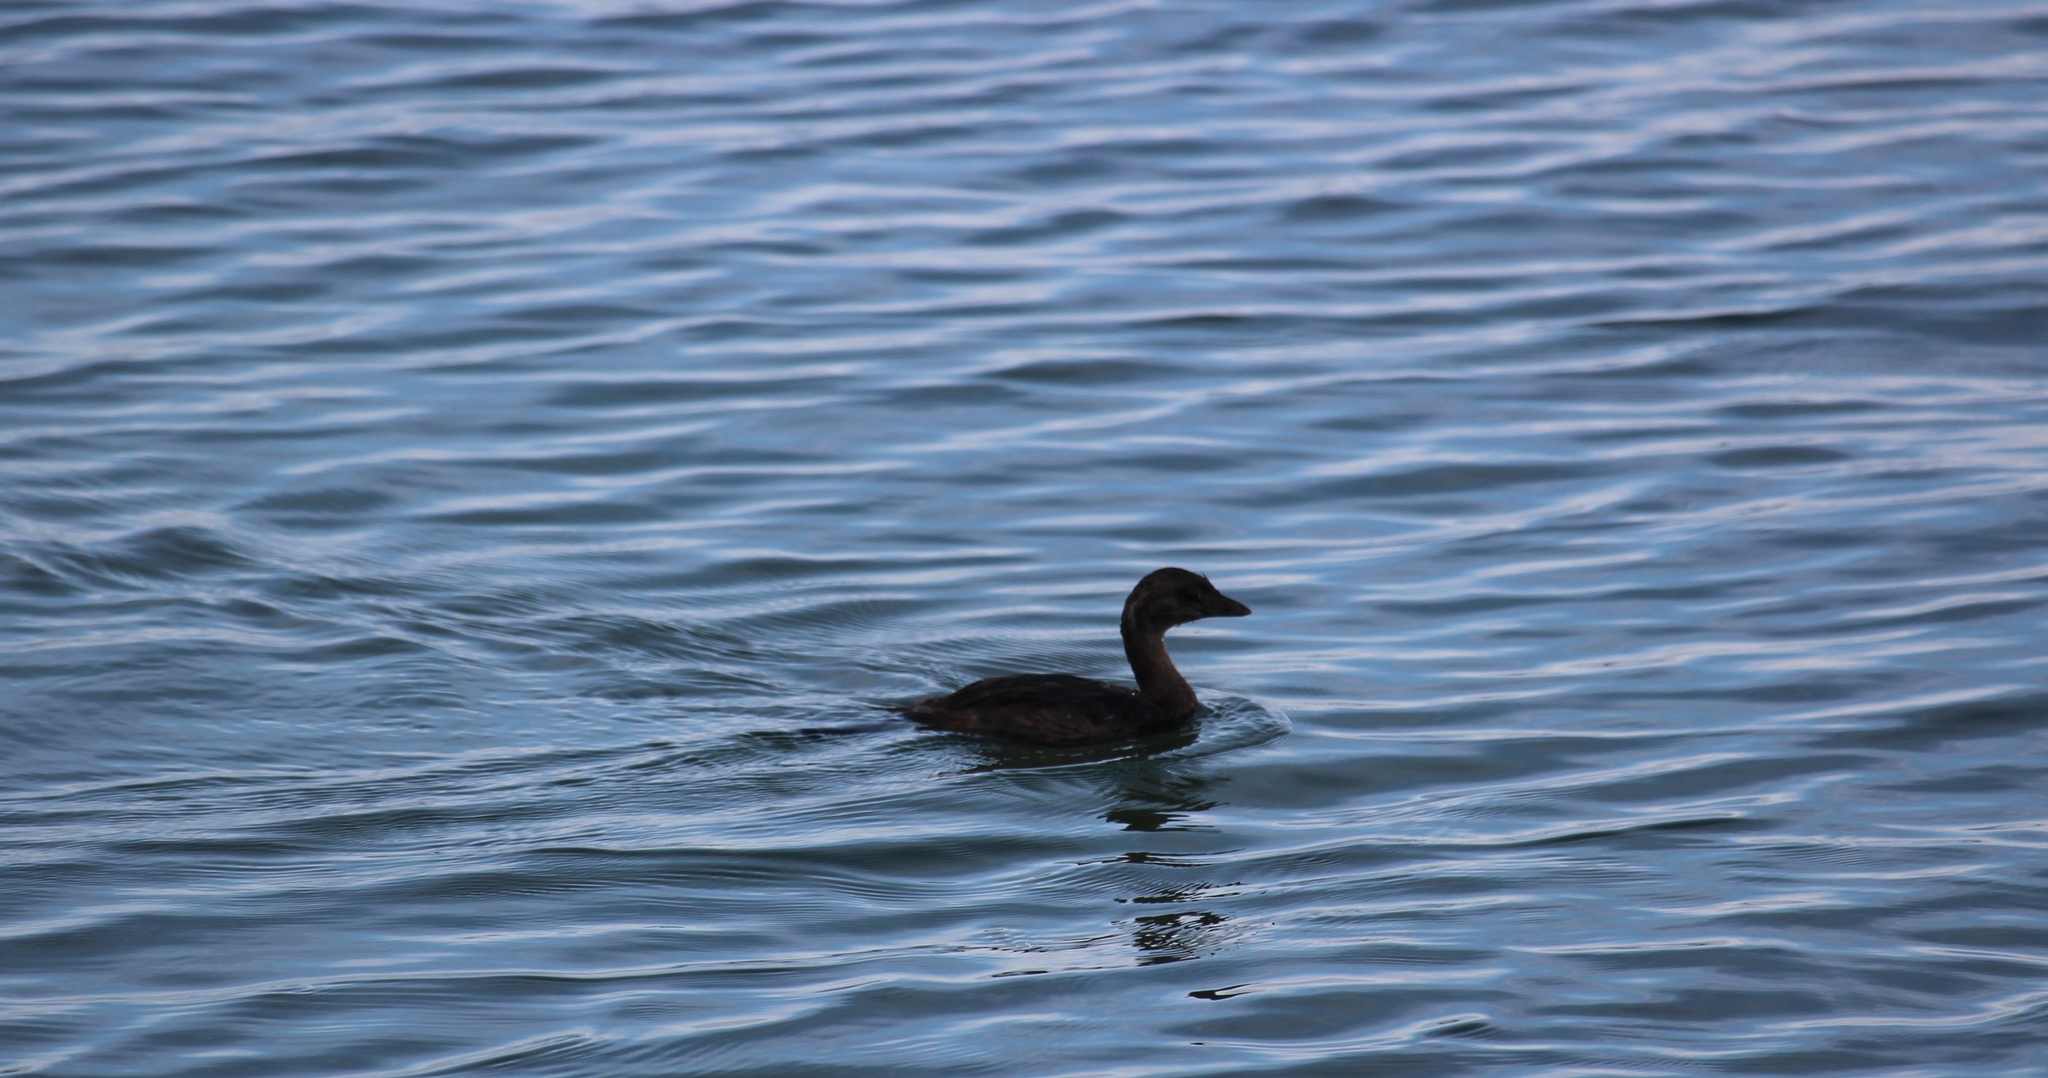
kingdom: Animalia
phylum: Chordata
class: Aves
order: Podicipediformes
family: Podicipedidae
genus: Podilymbus
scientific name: Podilymbus podiceps
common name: Pied-billed grebe
